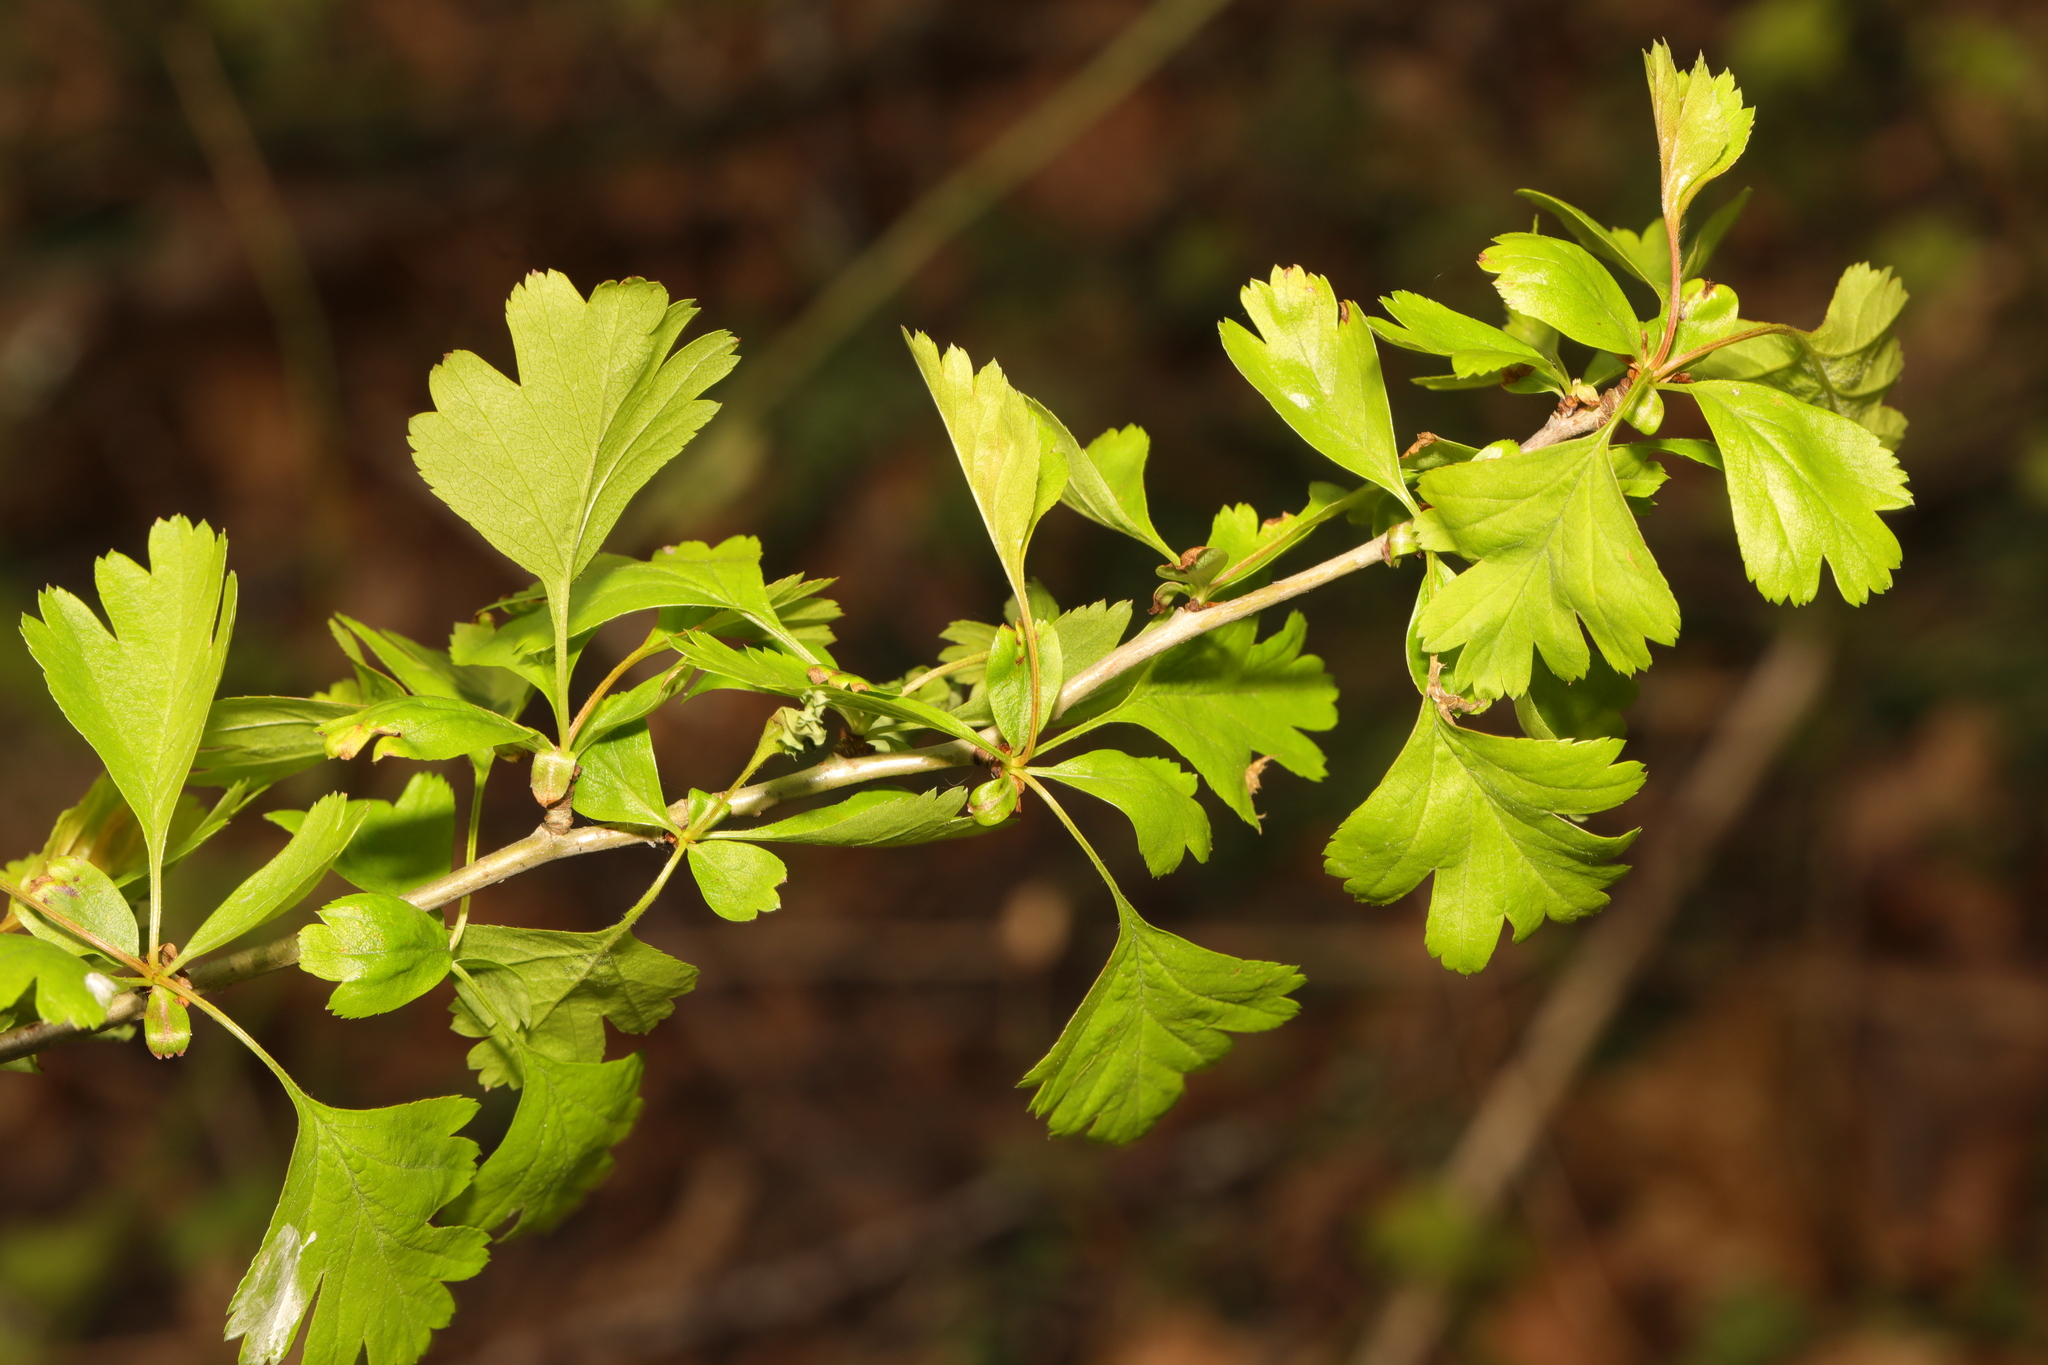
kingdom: Plantae
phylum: Tracheophyta
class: Magnoliopsida
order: Rosales
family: Rosaceae
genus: Crataegus
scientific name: Crataegus monogyna
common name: Hawthorn
